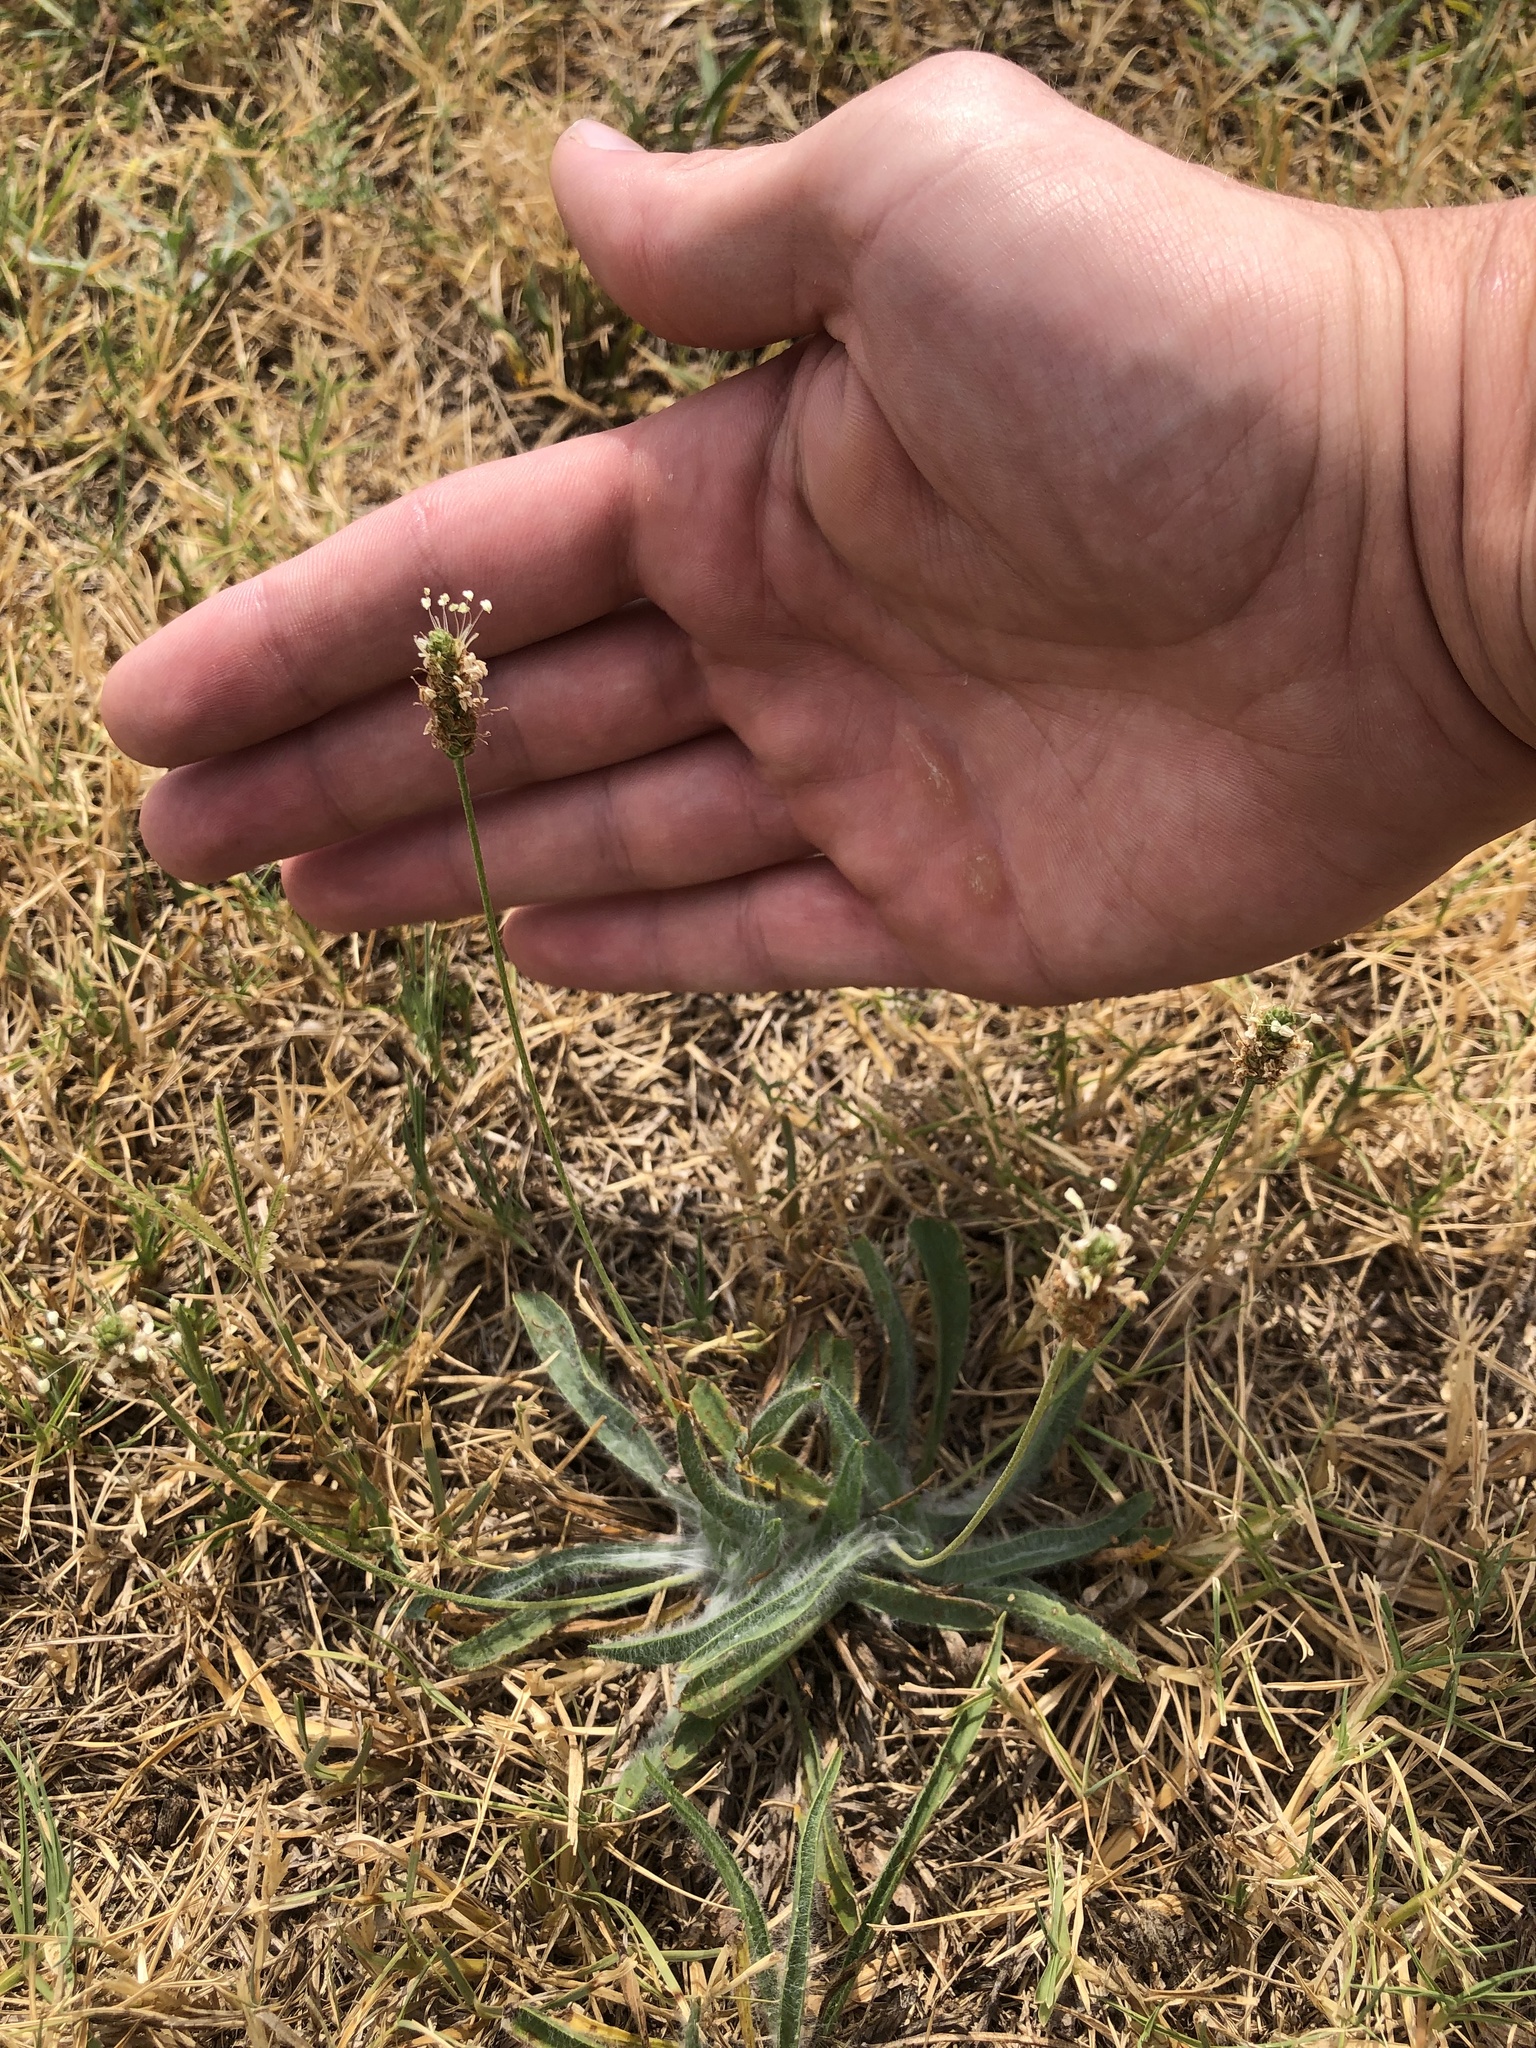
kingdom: Plantae
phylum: Tracheophyta
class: Magnoliopsida
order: Lamiales
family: Plantaginaceae
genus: Plantago
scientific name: Plantago lanceolata
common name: Ribwort plantain
